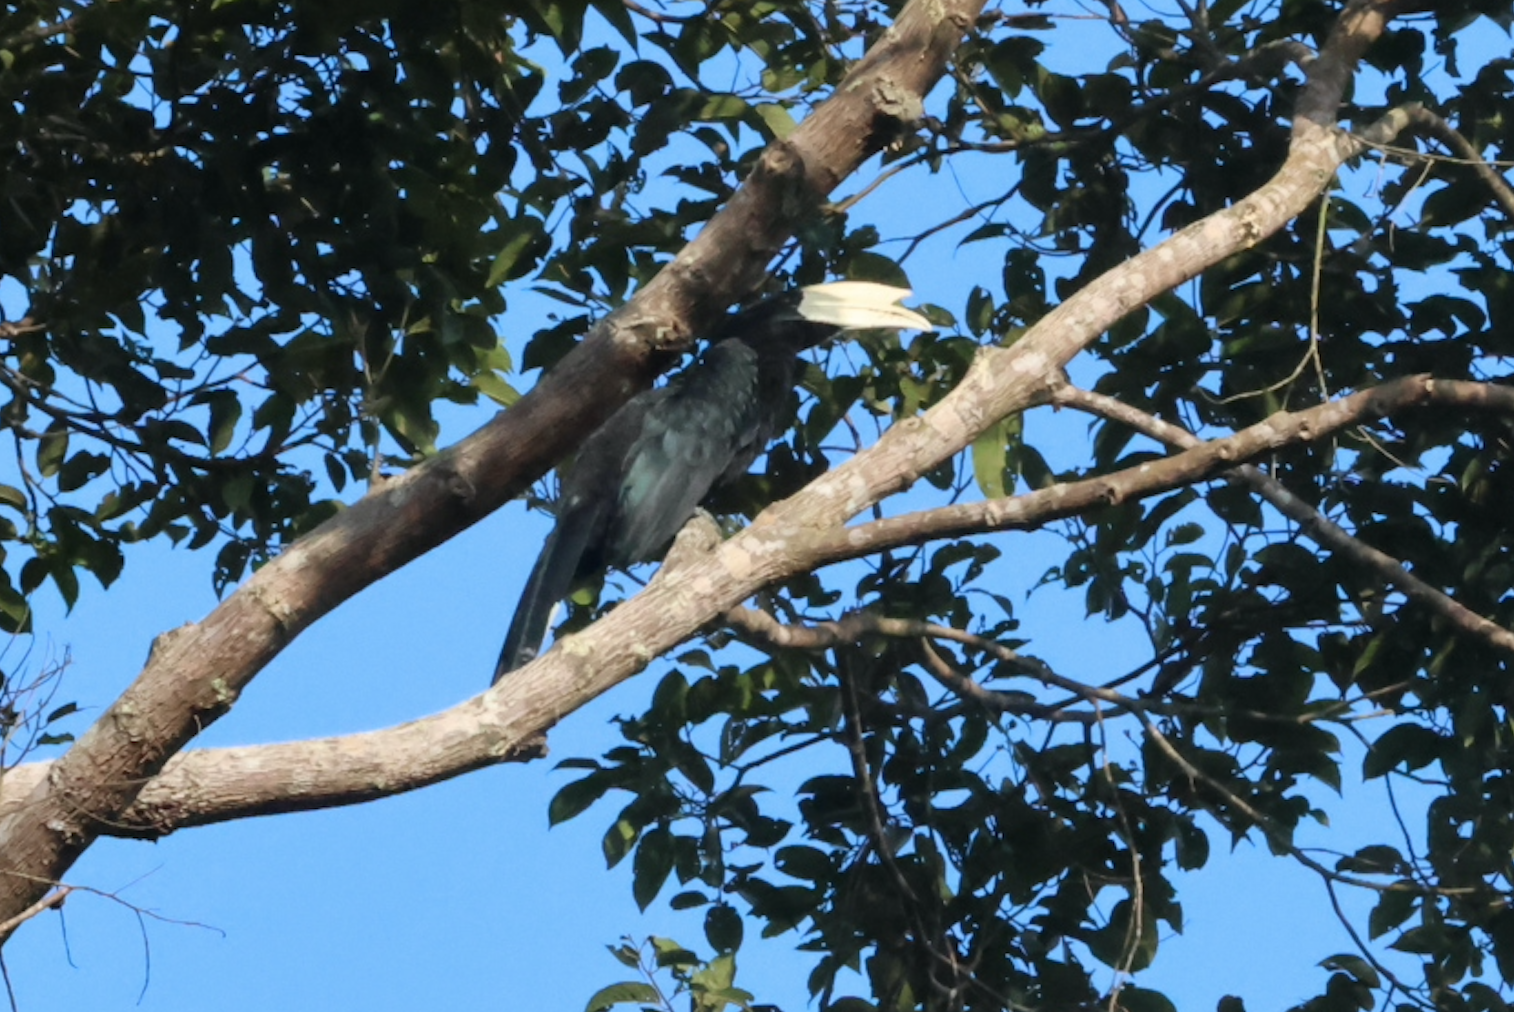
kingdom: Animalia
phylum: Chordata
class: Aves
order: Bucerotiformes
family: Bucerotidae
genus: Anthracoceros
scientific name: Anthracoceros malayanus
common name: Black hornbill
